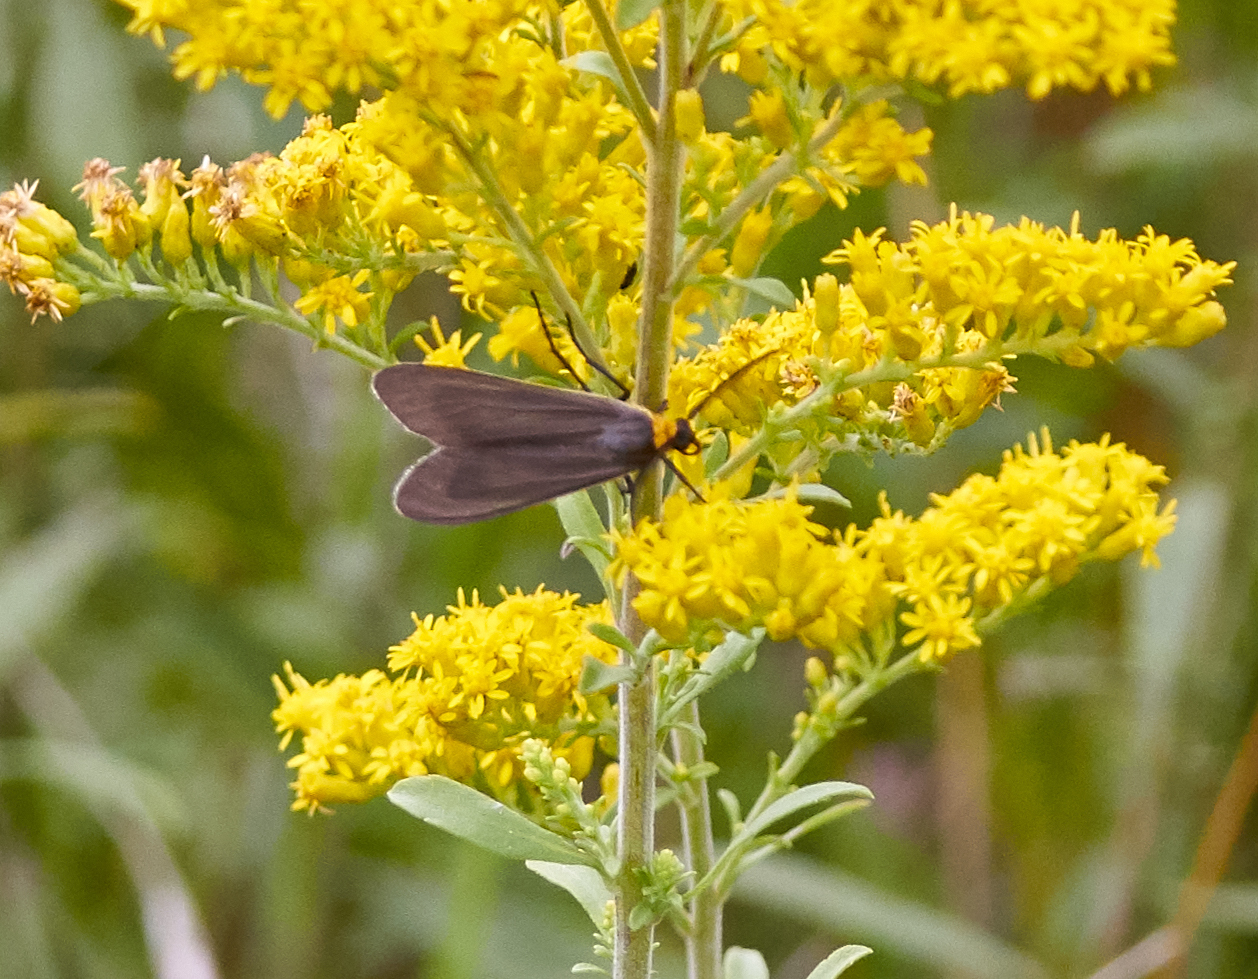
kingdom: Animalia
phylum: Arthropoda
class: Insecta
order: Lepidoptera
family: Erebidae
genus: Cisseps
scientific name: Cisseps fulvicollis
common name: Yellow-collared scape moth
